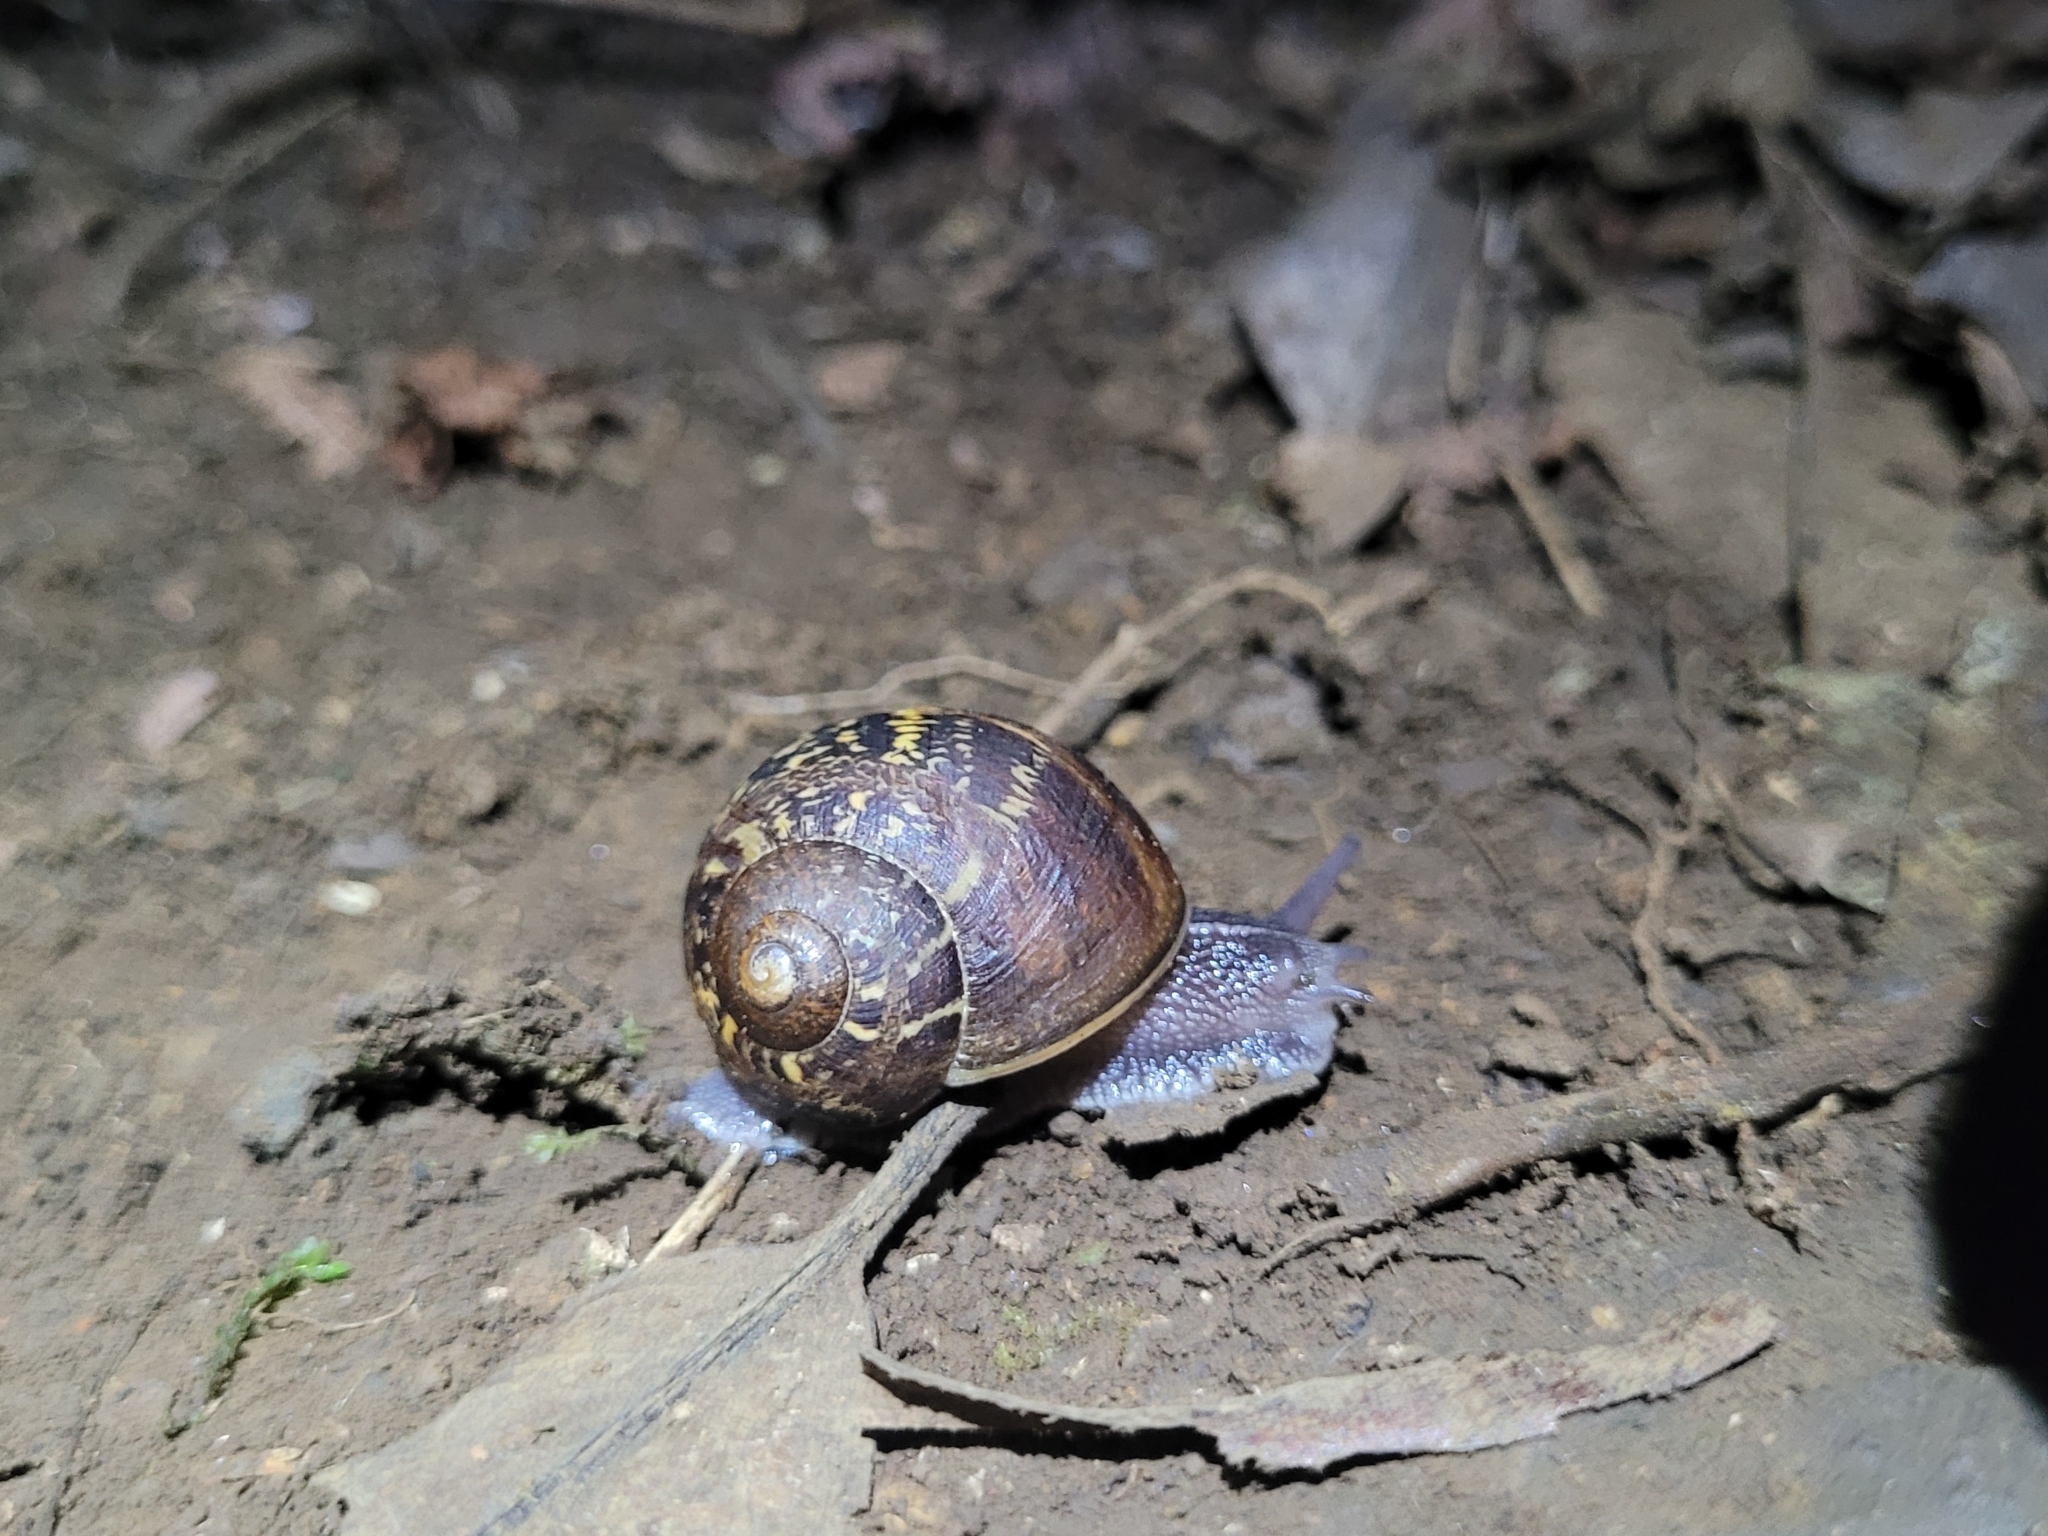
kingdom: Animalia
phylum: Mollusca
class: Gastropoda
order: Stylommatophora
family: Helicidae
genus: Cornu
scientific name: Cornu aspersum
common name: Brown garden snail
